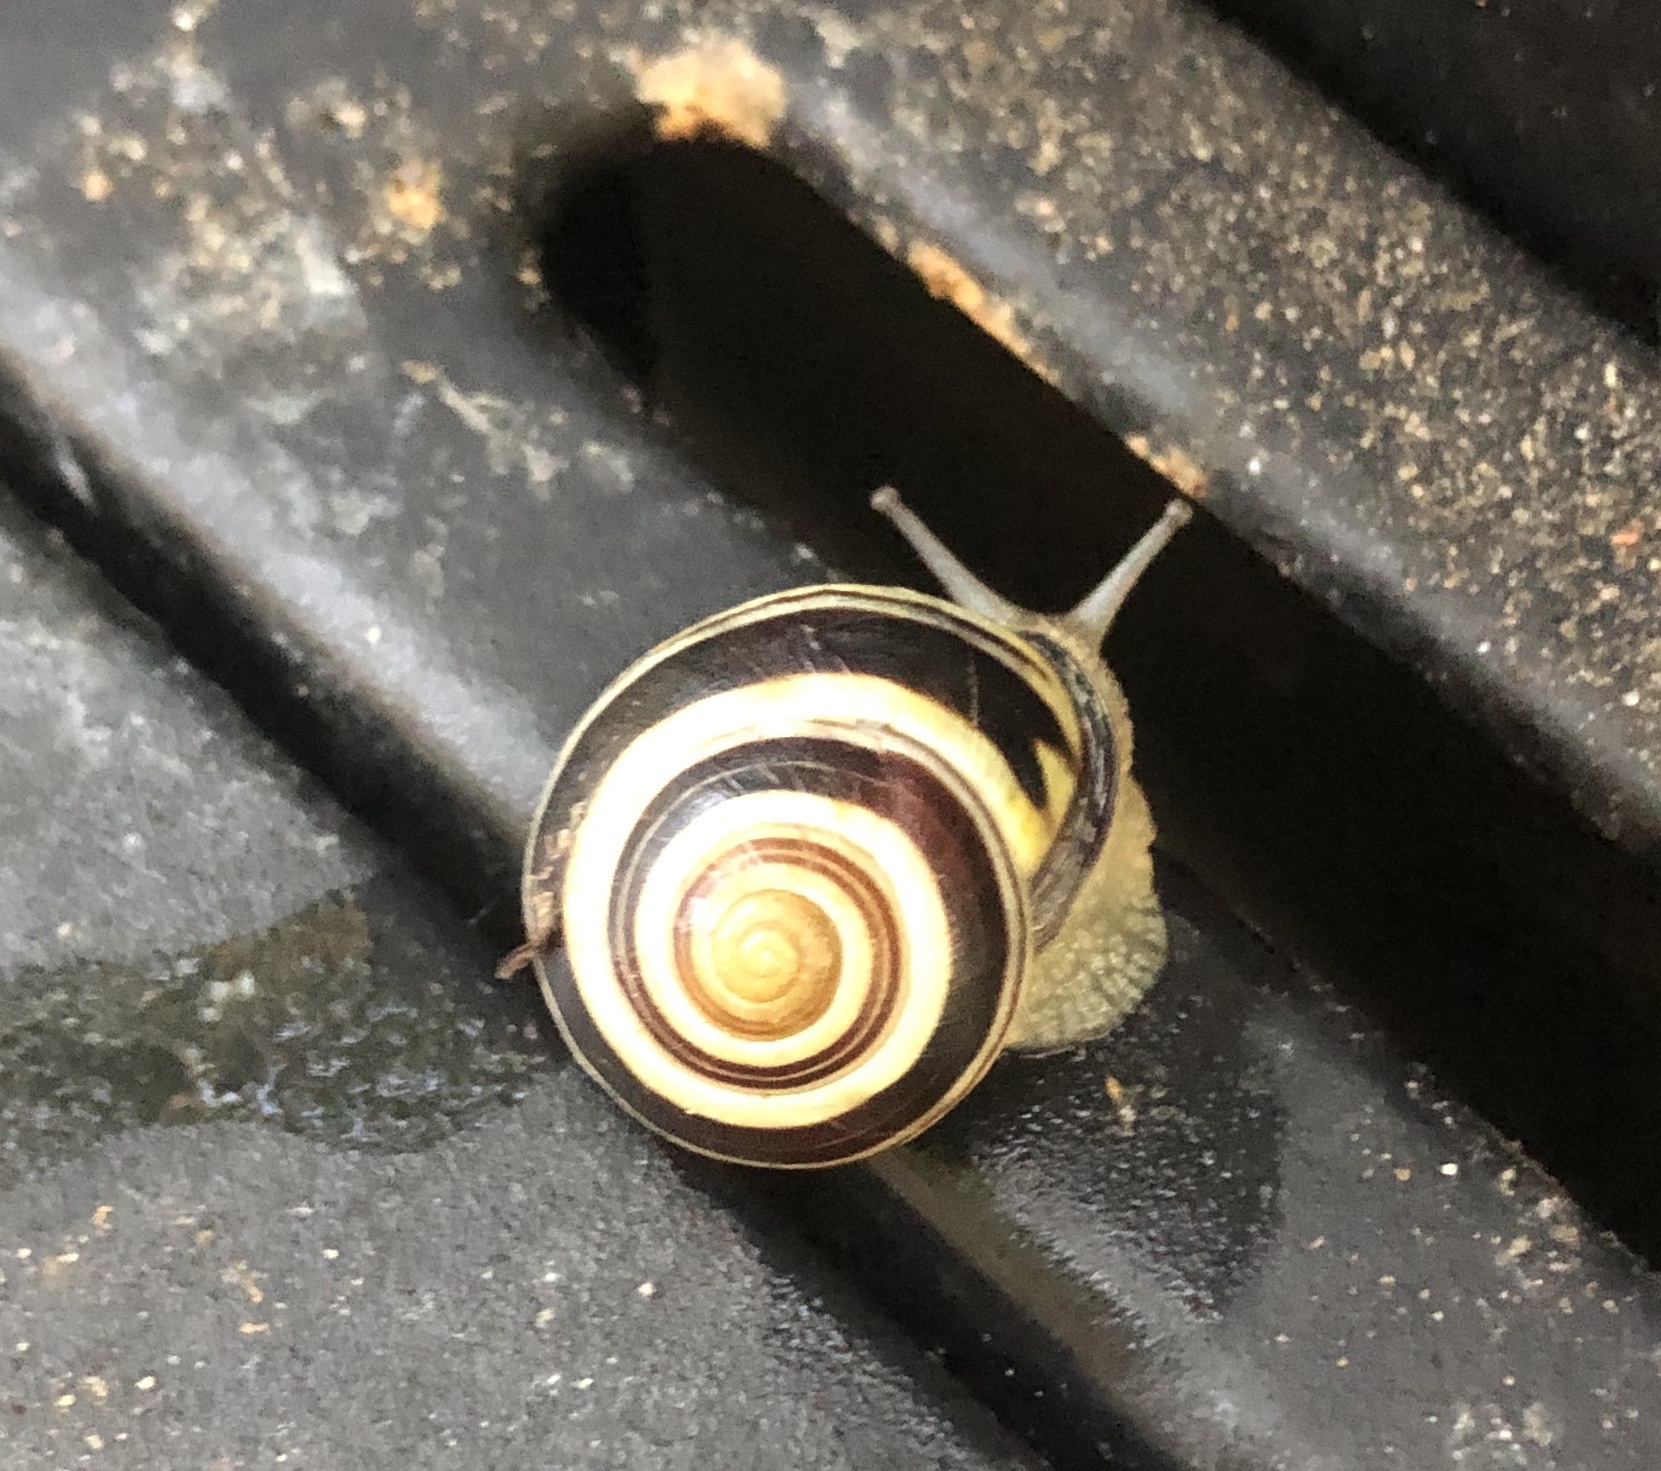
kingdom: Animalia
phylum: Mollusca
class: Gastropoda
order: Stylommatophora
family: Helicidae
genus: Cepaea
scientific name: Cepaea nemoralis
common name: Grovesnail
